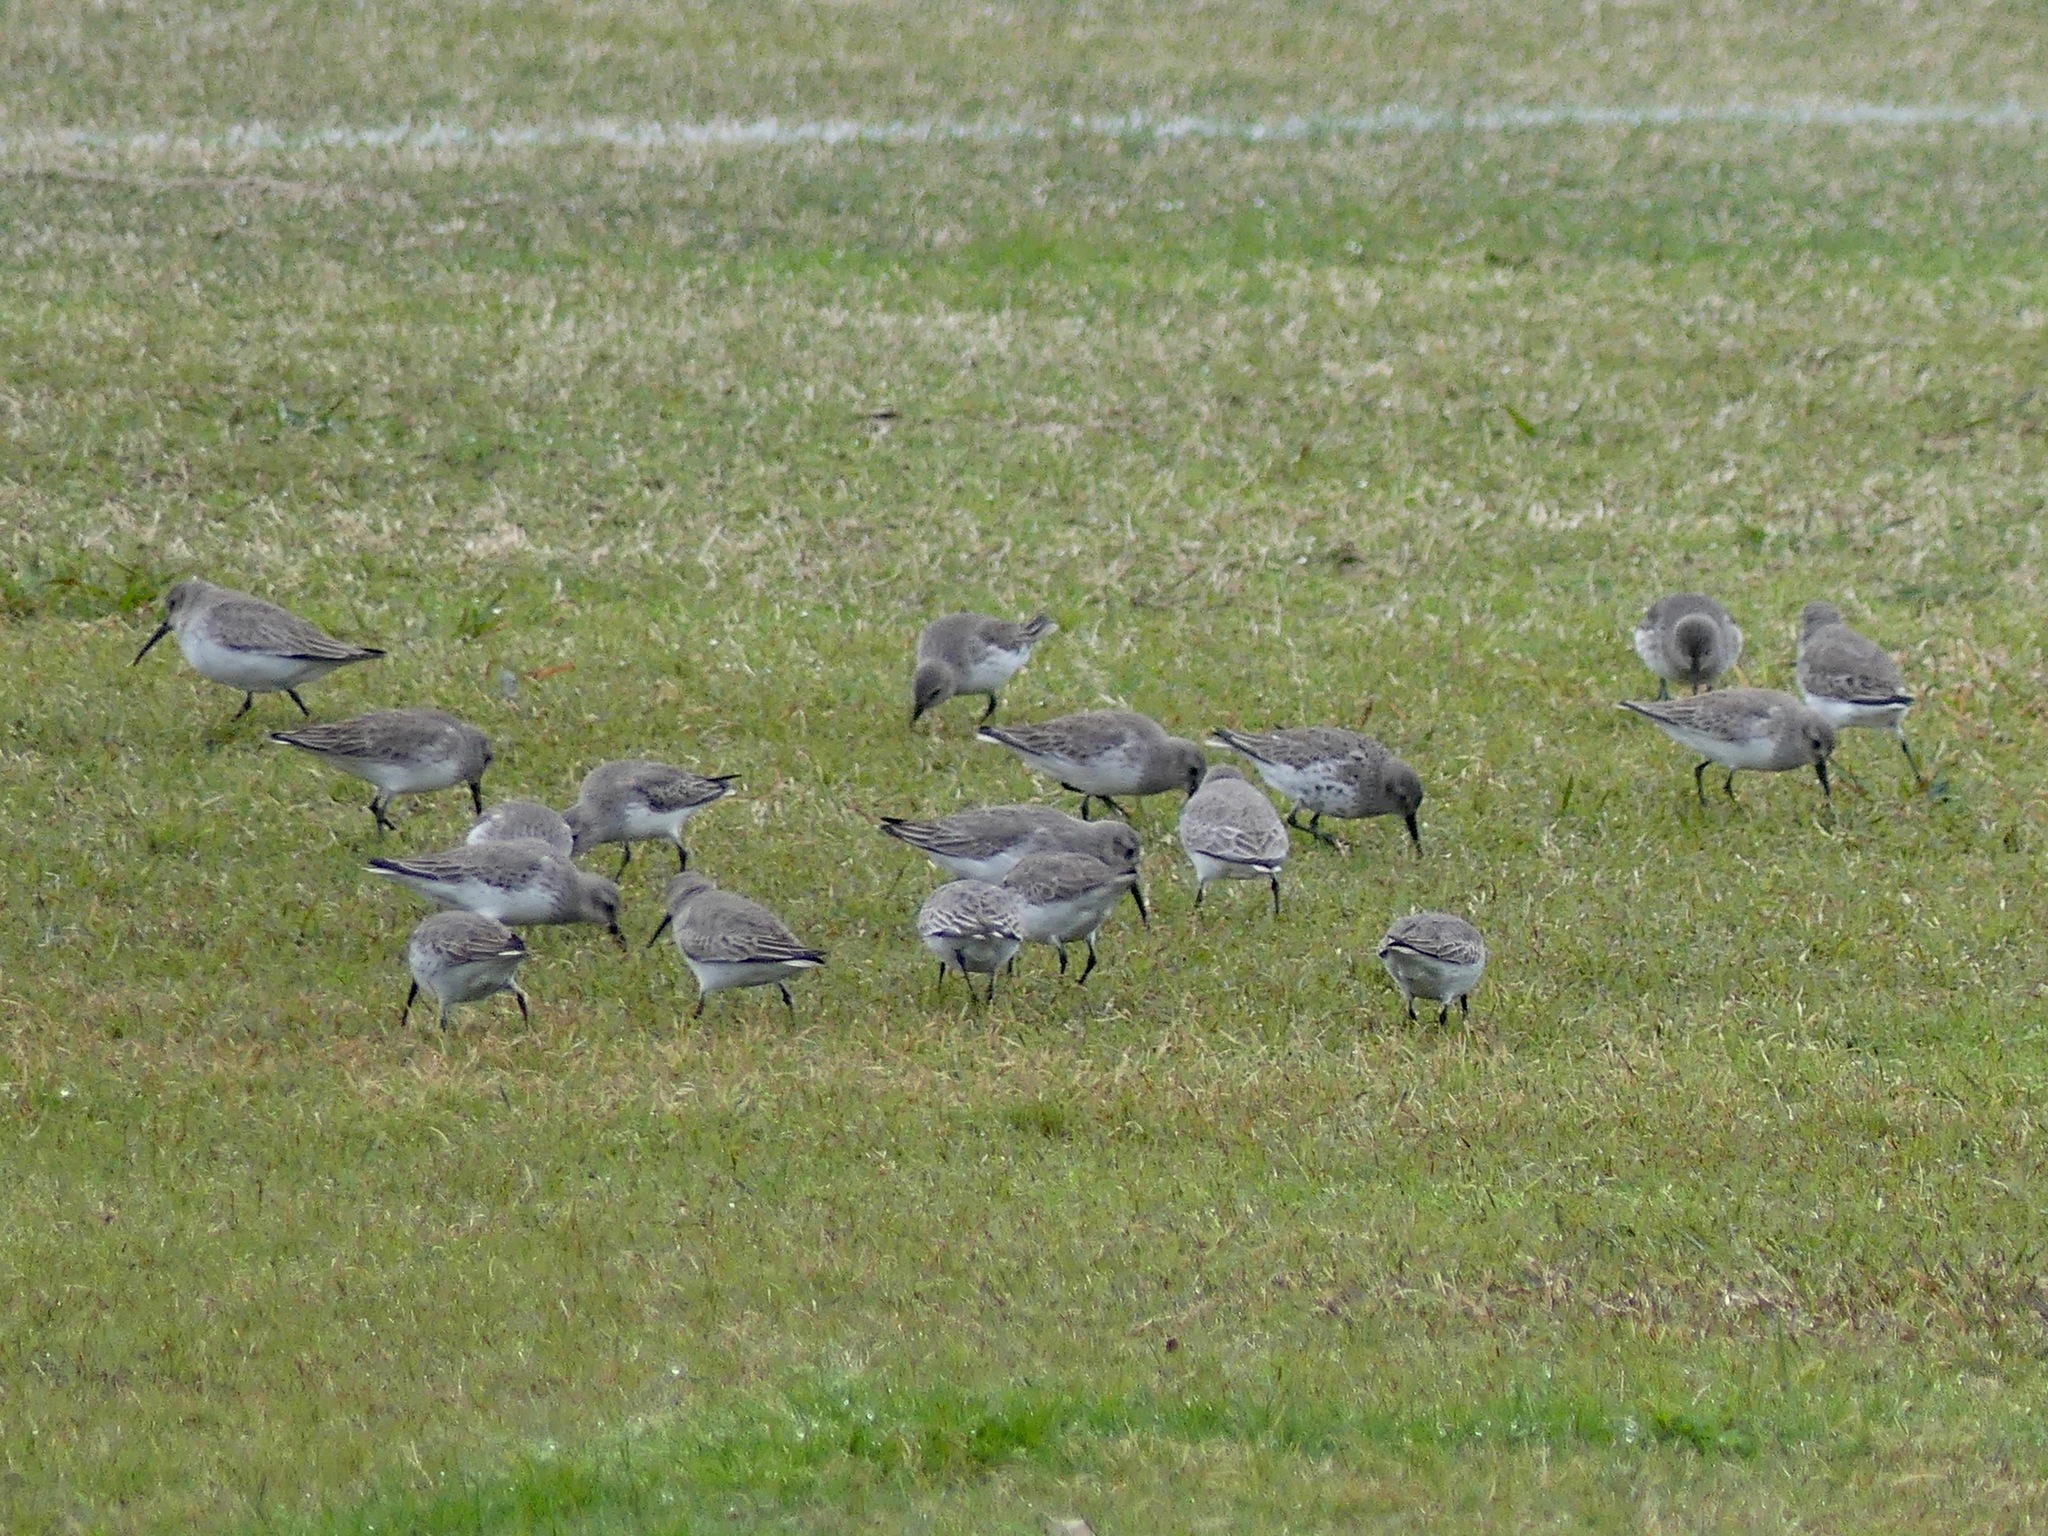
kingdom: Animalia
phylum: Chordata
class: Aves
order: Charadriiformes
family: Scolopacidae
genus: Calidris
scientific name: Calidris alpina
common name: Dunlin
